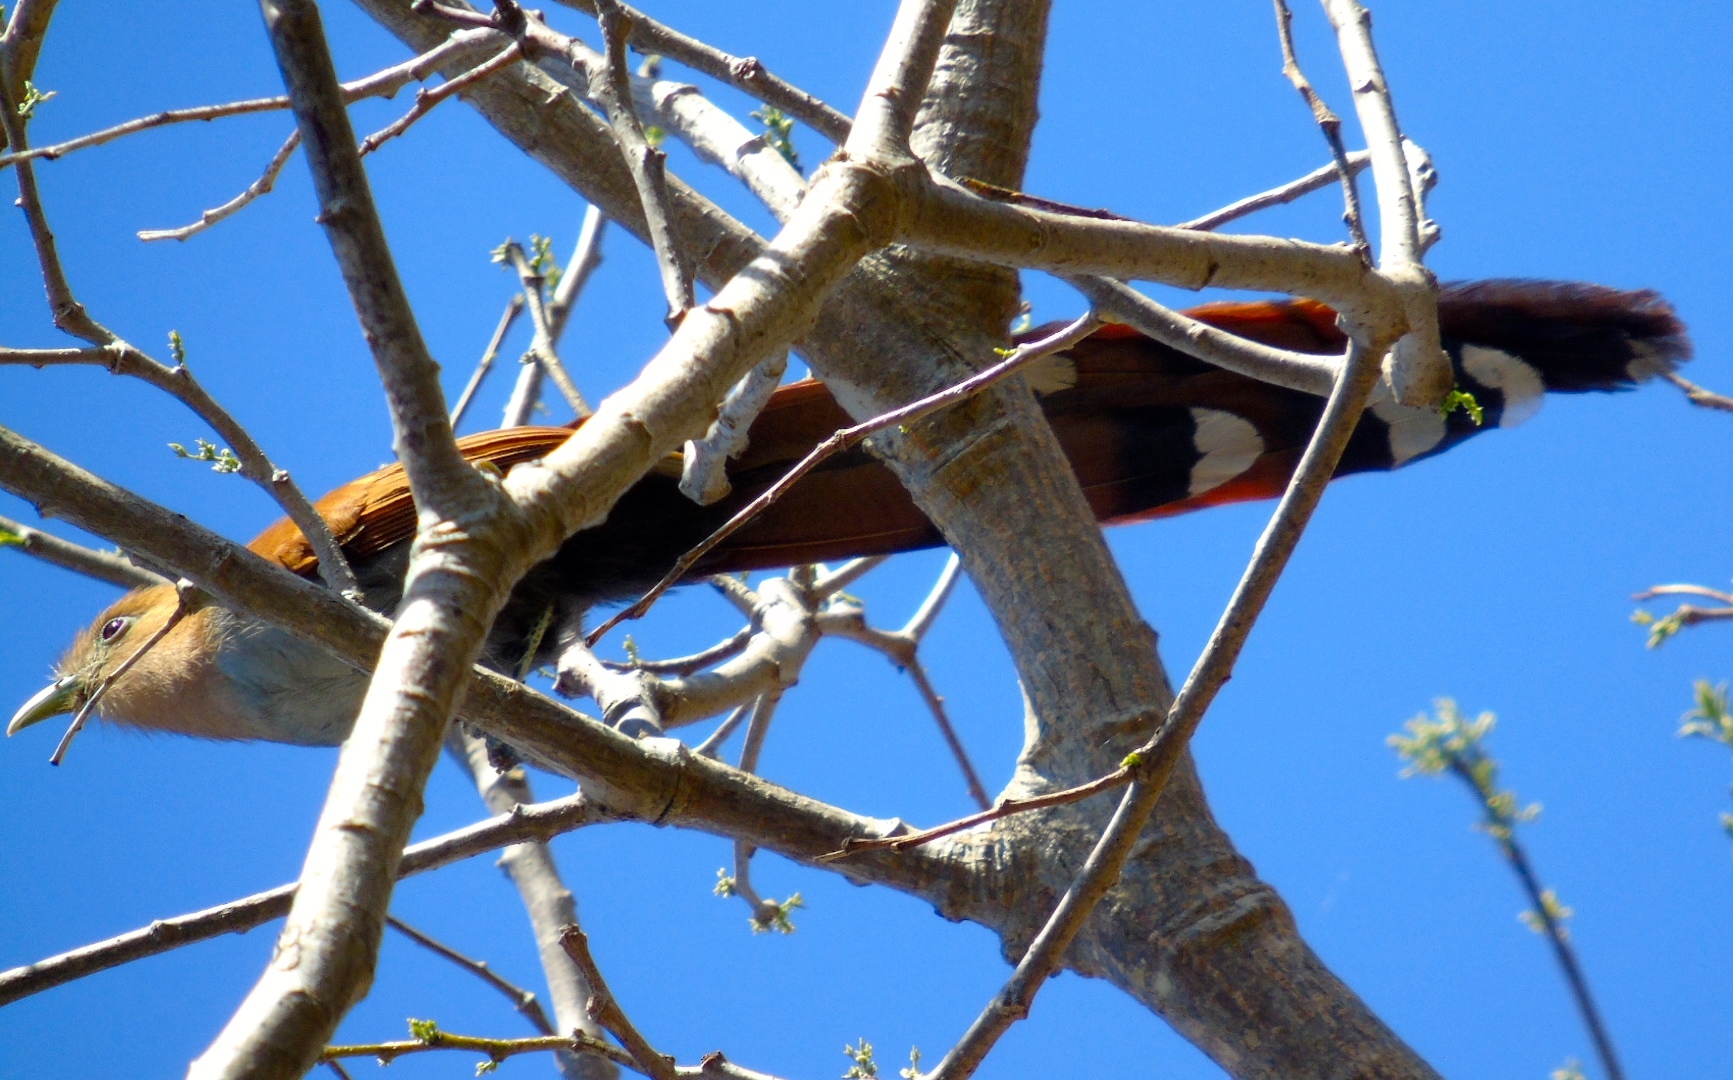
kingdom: Animalia
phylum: Chordata
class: Aves
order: Cuculiformes
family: Cuculidae
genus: Piaya
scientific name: Piaya cayana
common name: Squirrel cuckoo
